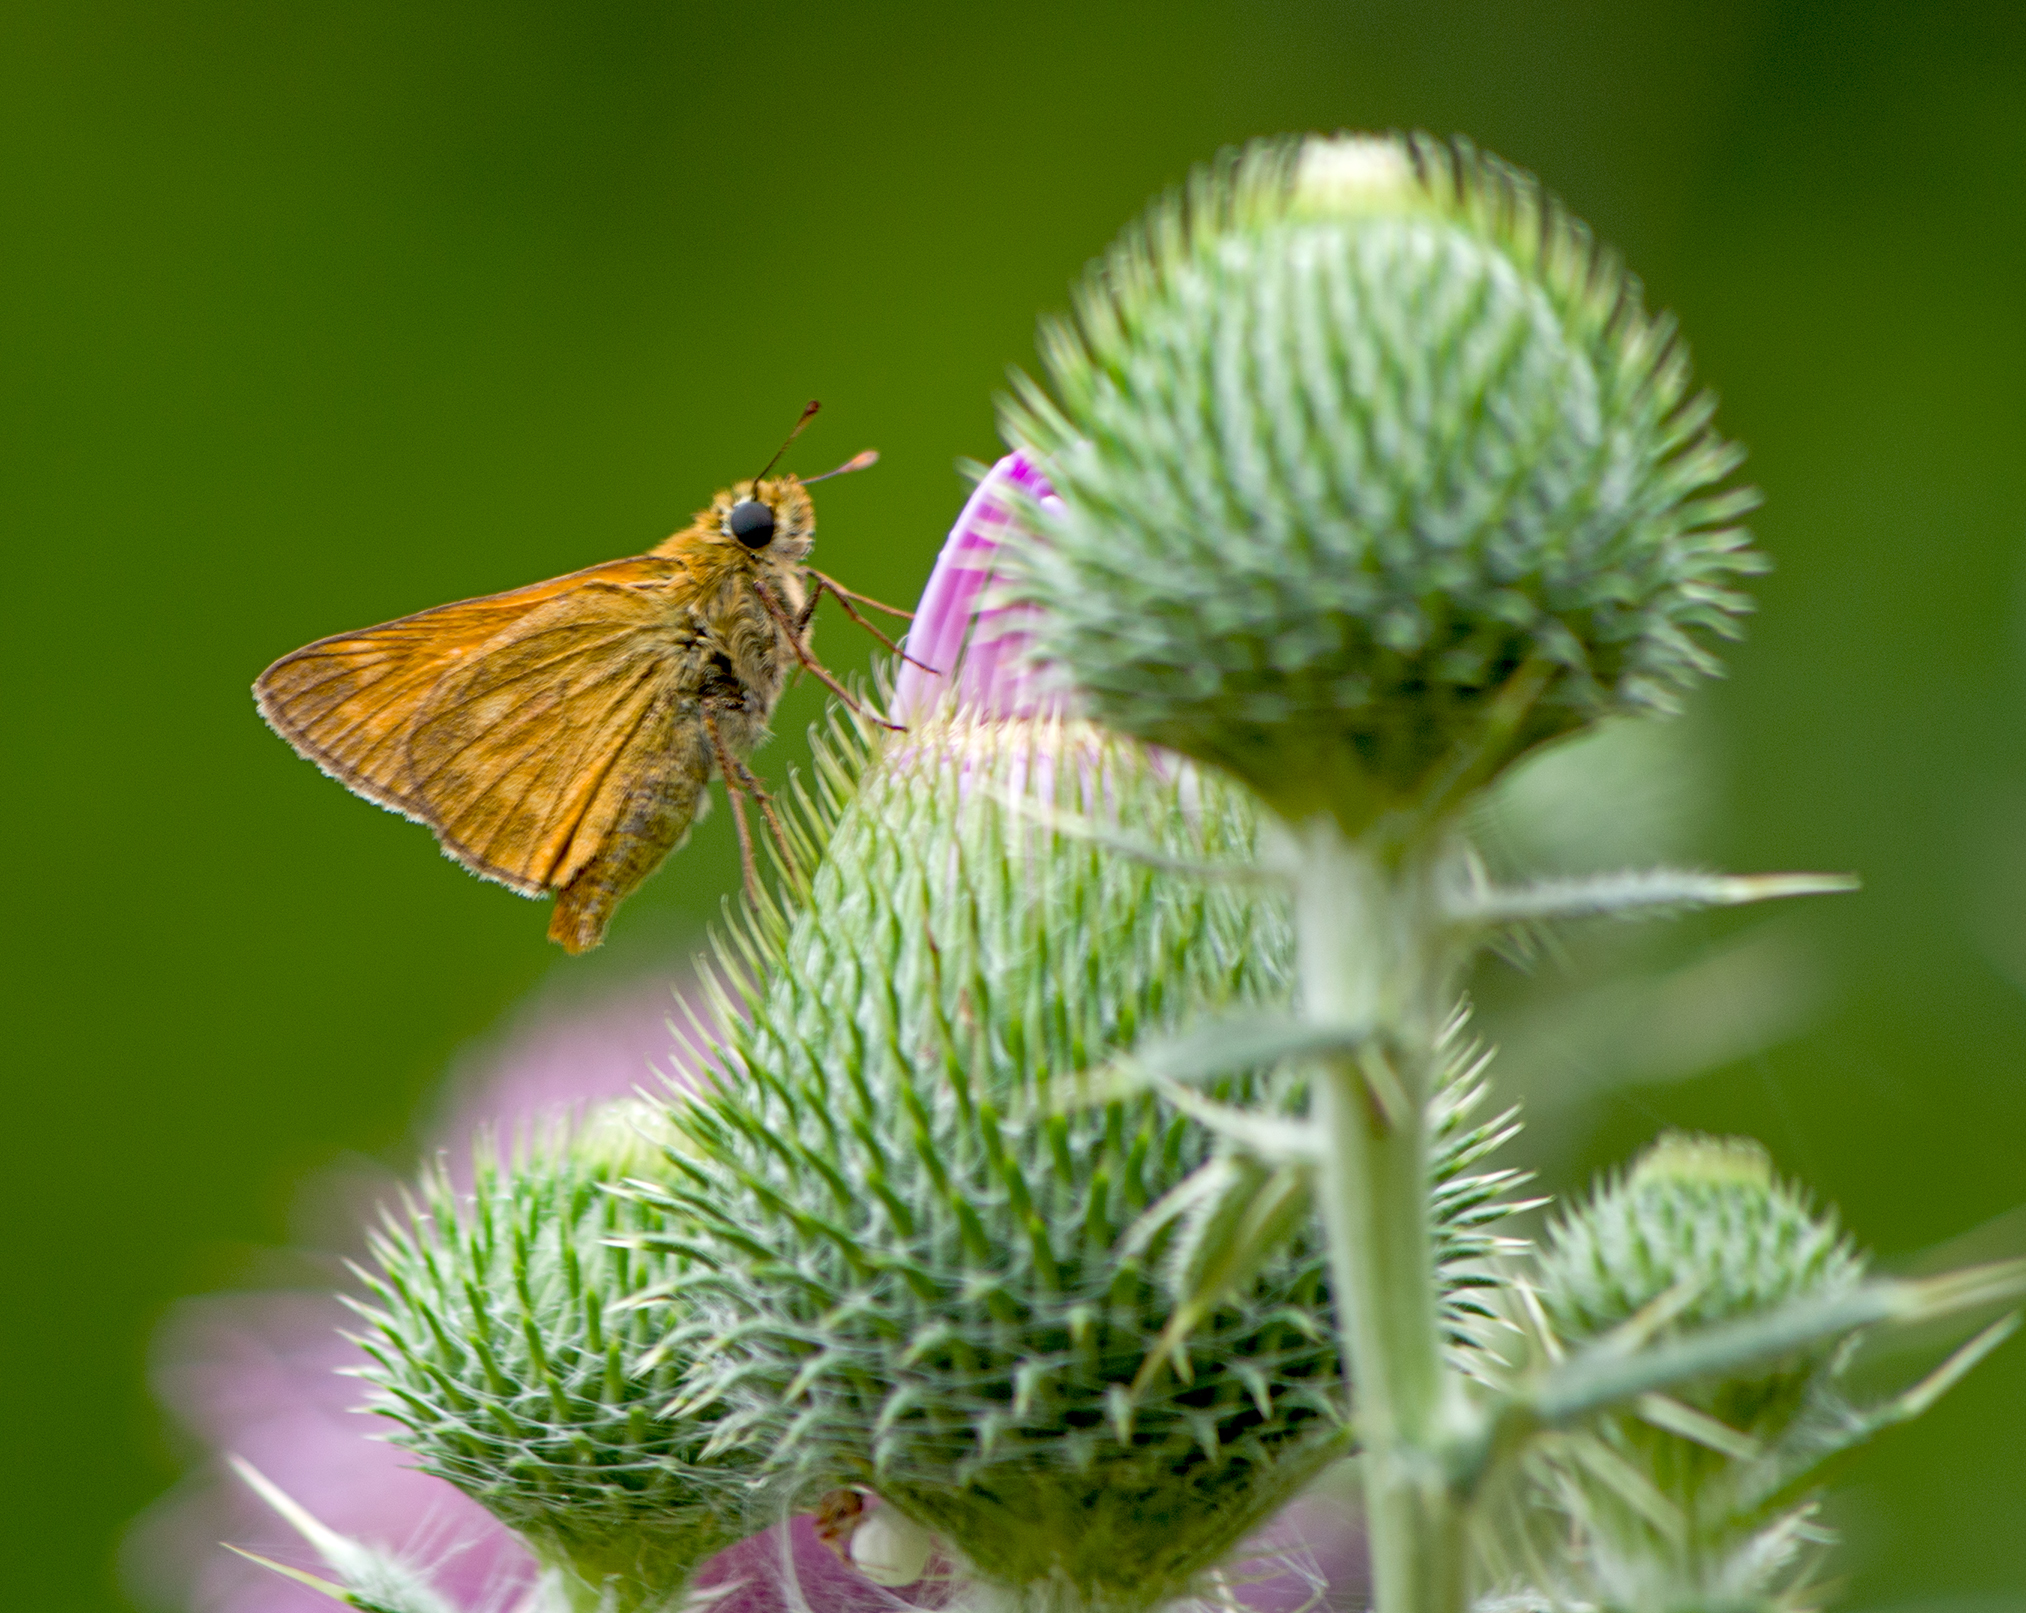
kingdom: Animalia
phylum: Arthropoda
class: Insecta
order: Lepidoptera
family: Hesperiidae
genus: Ochlodes
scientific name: Ochlodes venata
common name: Large skipper
